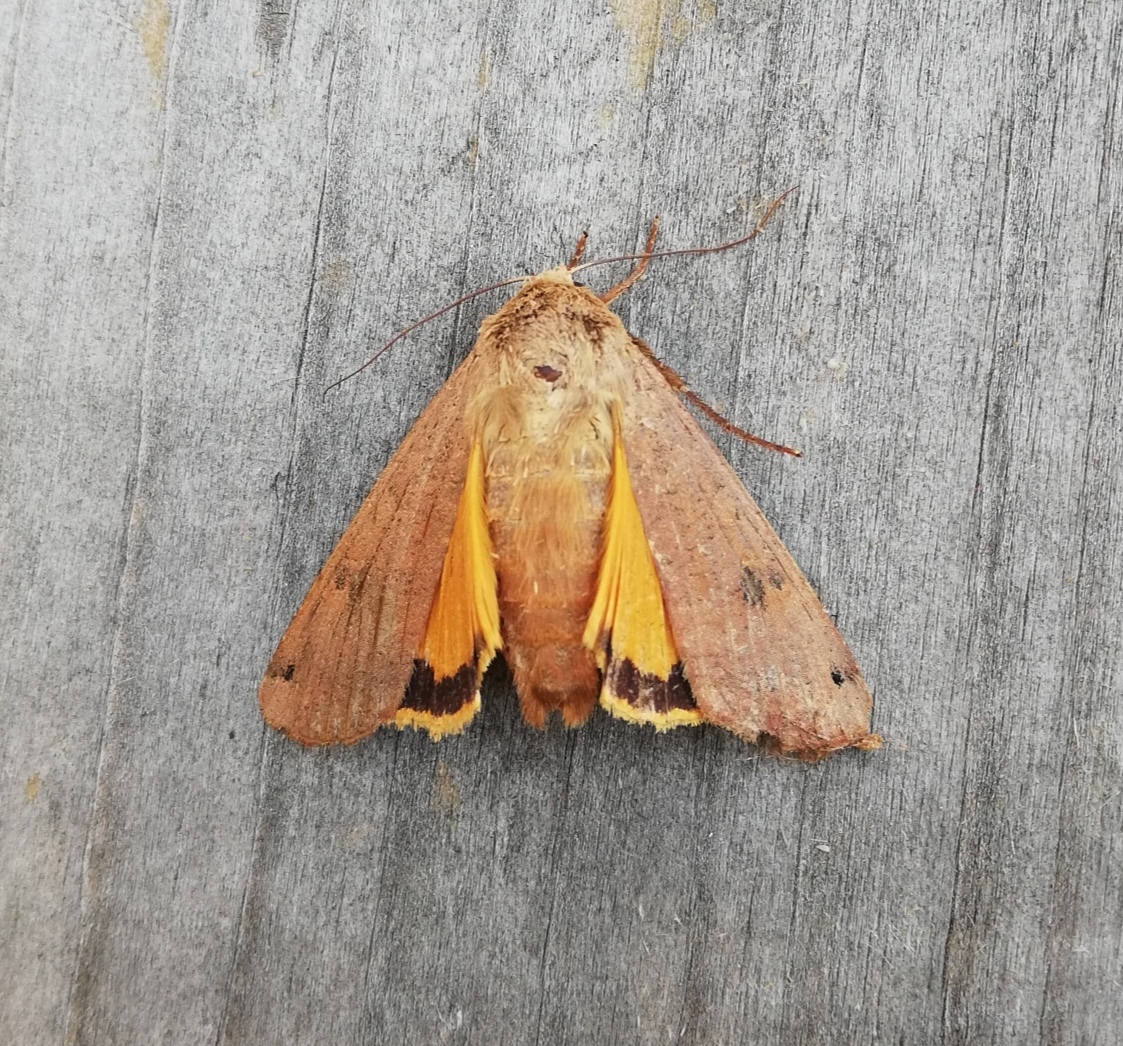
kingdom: Animalia
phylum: Arthropoda
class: Insecta
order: Lepidoptera
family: Noctuidae
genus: Noctua
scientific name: Noctua pronuba
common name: Large yellow underwing
